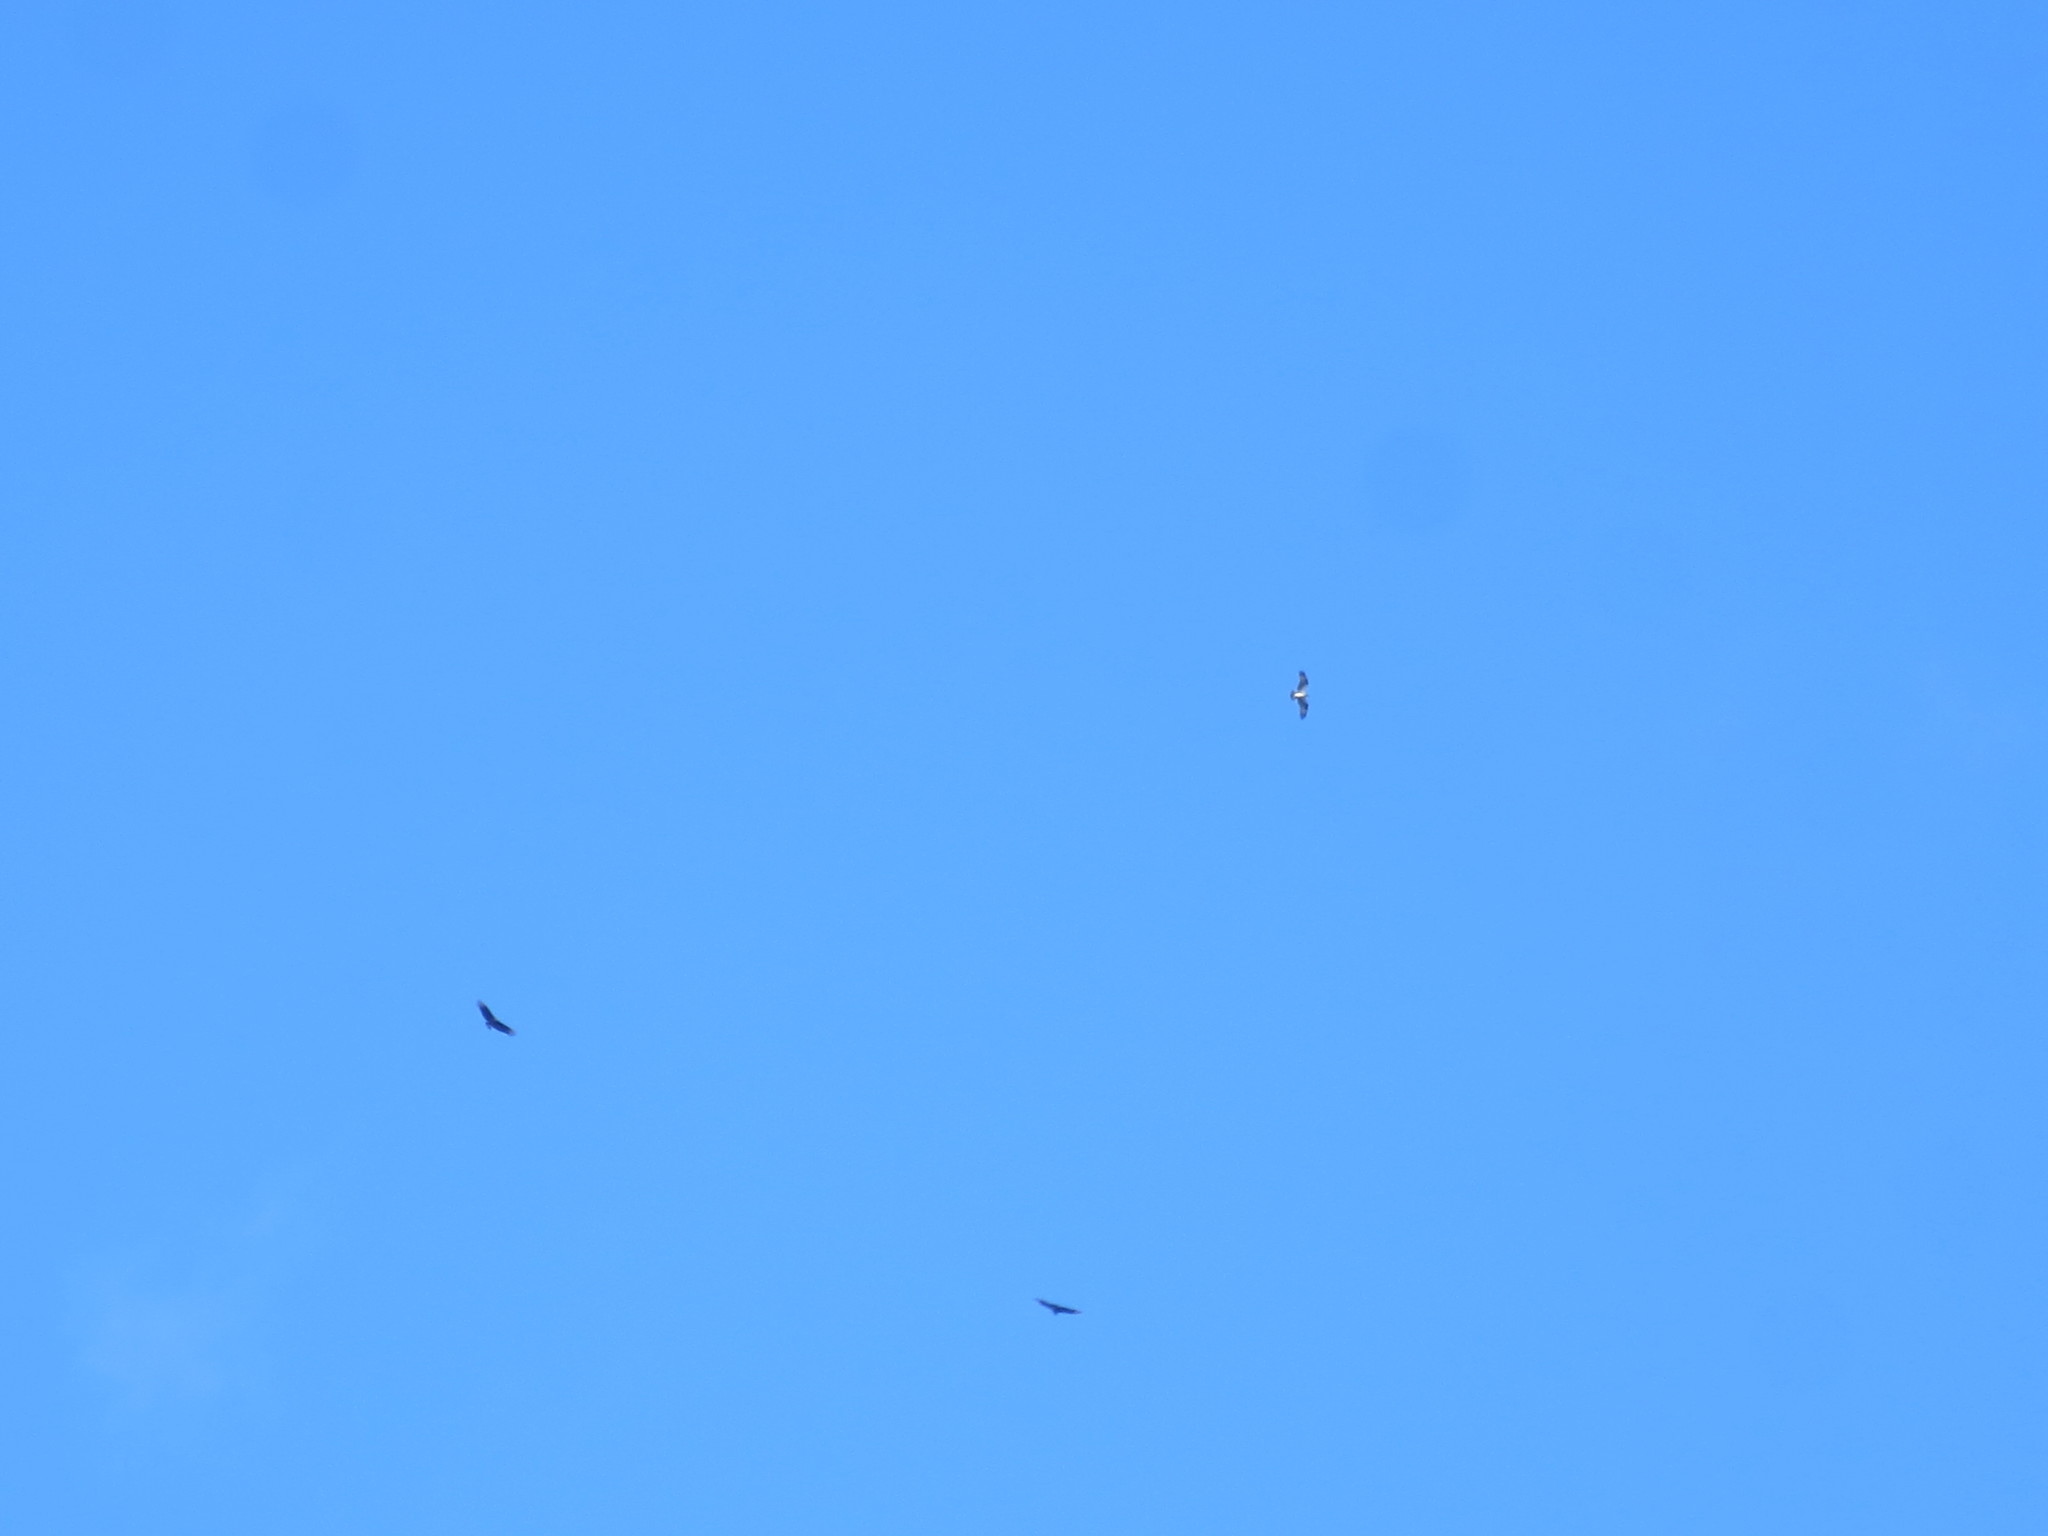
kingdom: Animalia
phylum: Chordata
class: Aves
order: Accipitriformes
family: Pandionidae
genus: Pandion
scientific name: Pandion haliaetus
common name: Osprey
